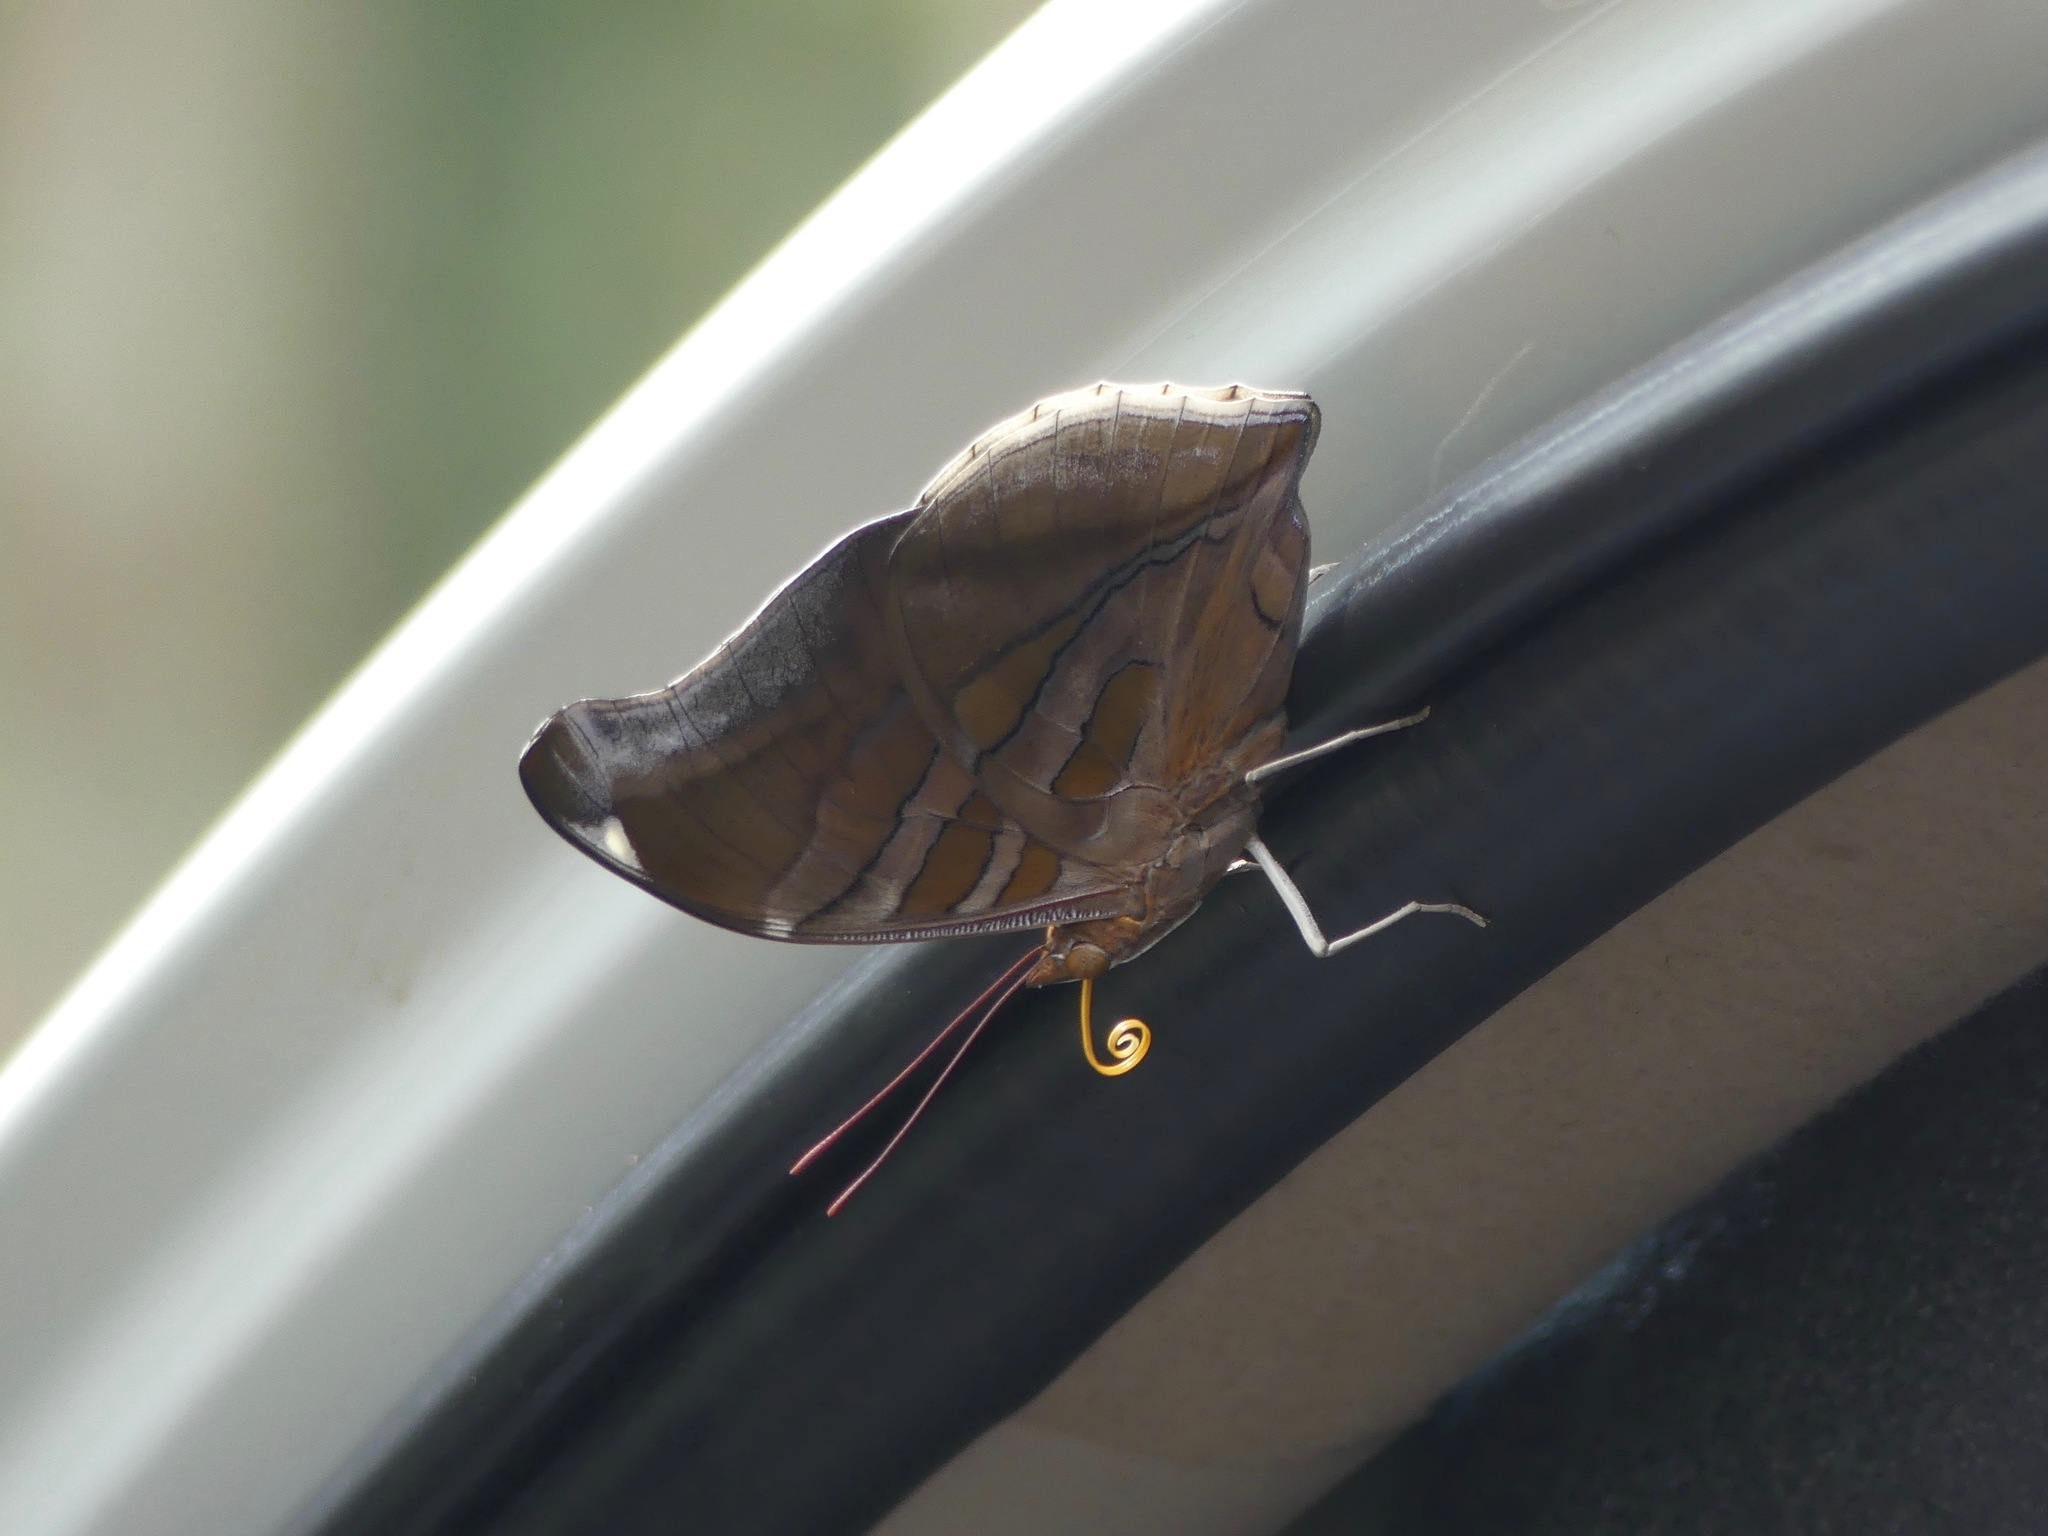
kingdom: Animalia
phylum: Arthropoda
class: Insecta
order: Lepidoptera
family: Nymphalidae
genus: Historis
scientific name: Historis odius
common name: Orion cecropian
